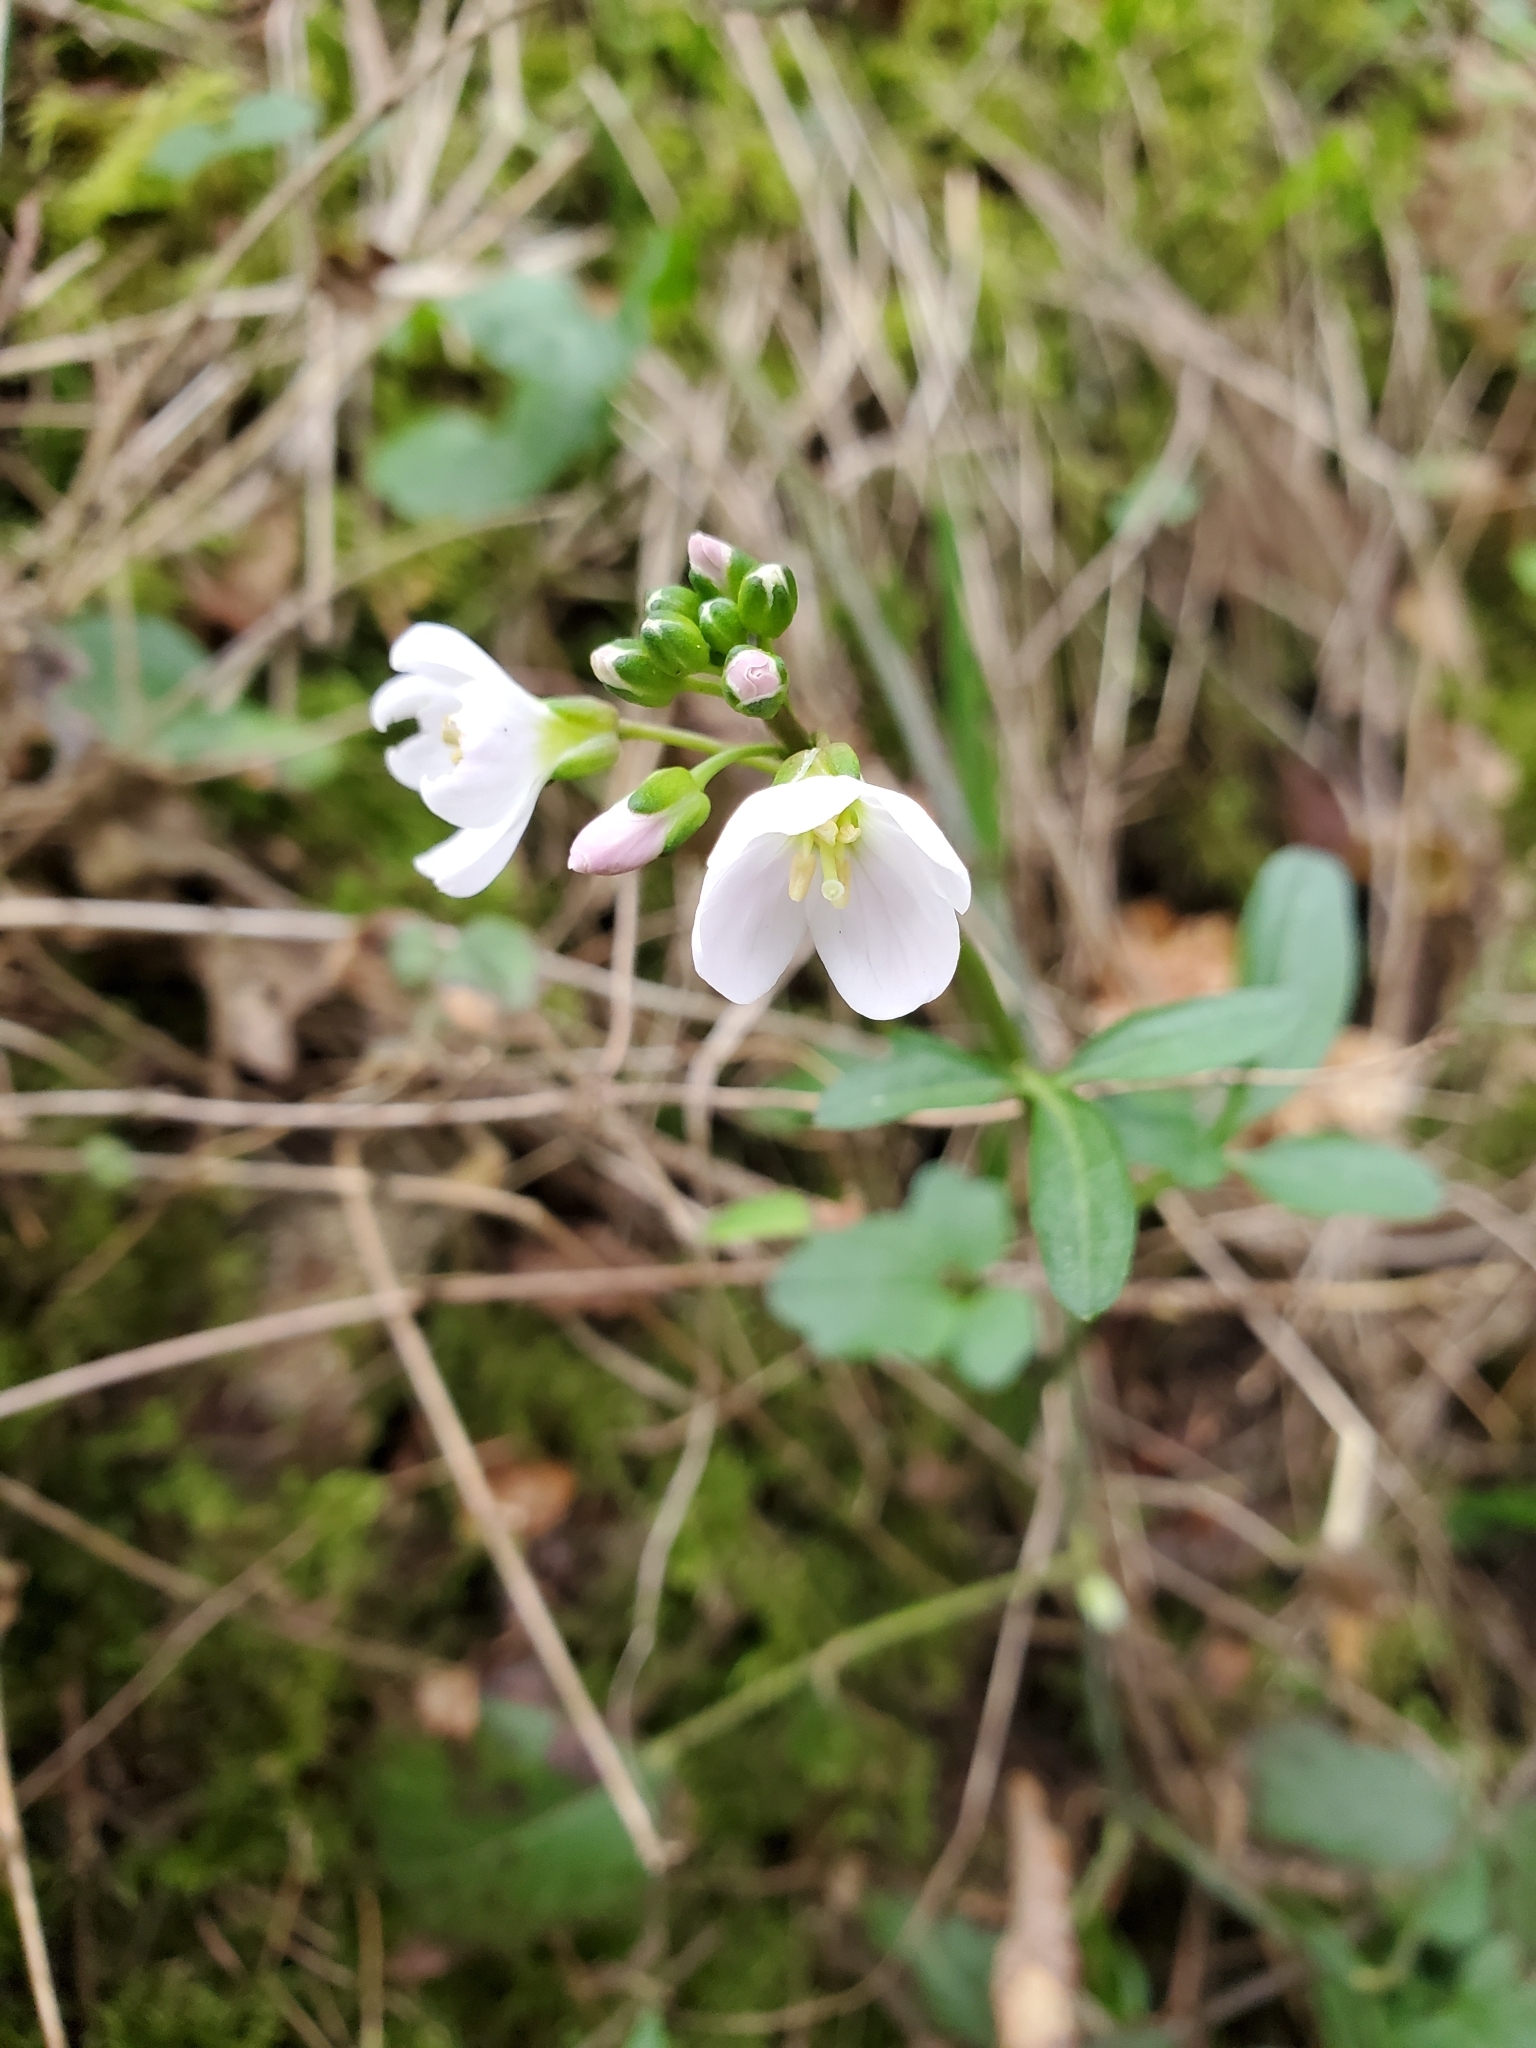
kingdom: Plantae
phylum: Tracheophyta
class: Magnoliopsida
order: Brassicales
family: Brassicaceae
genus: Cardamine
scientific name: Cardamine nuttallii
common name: Nuttall's toothwort
